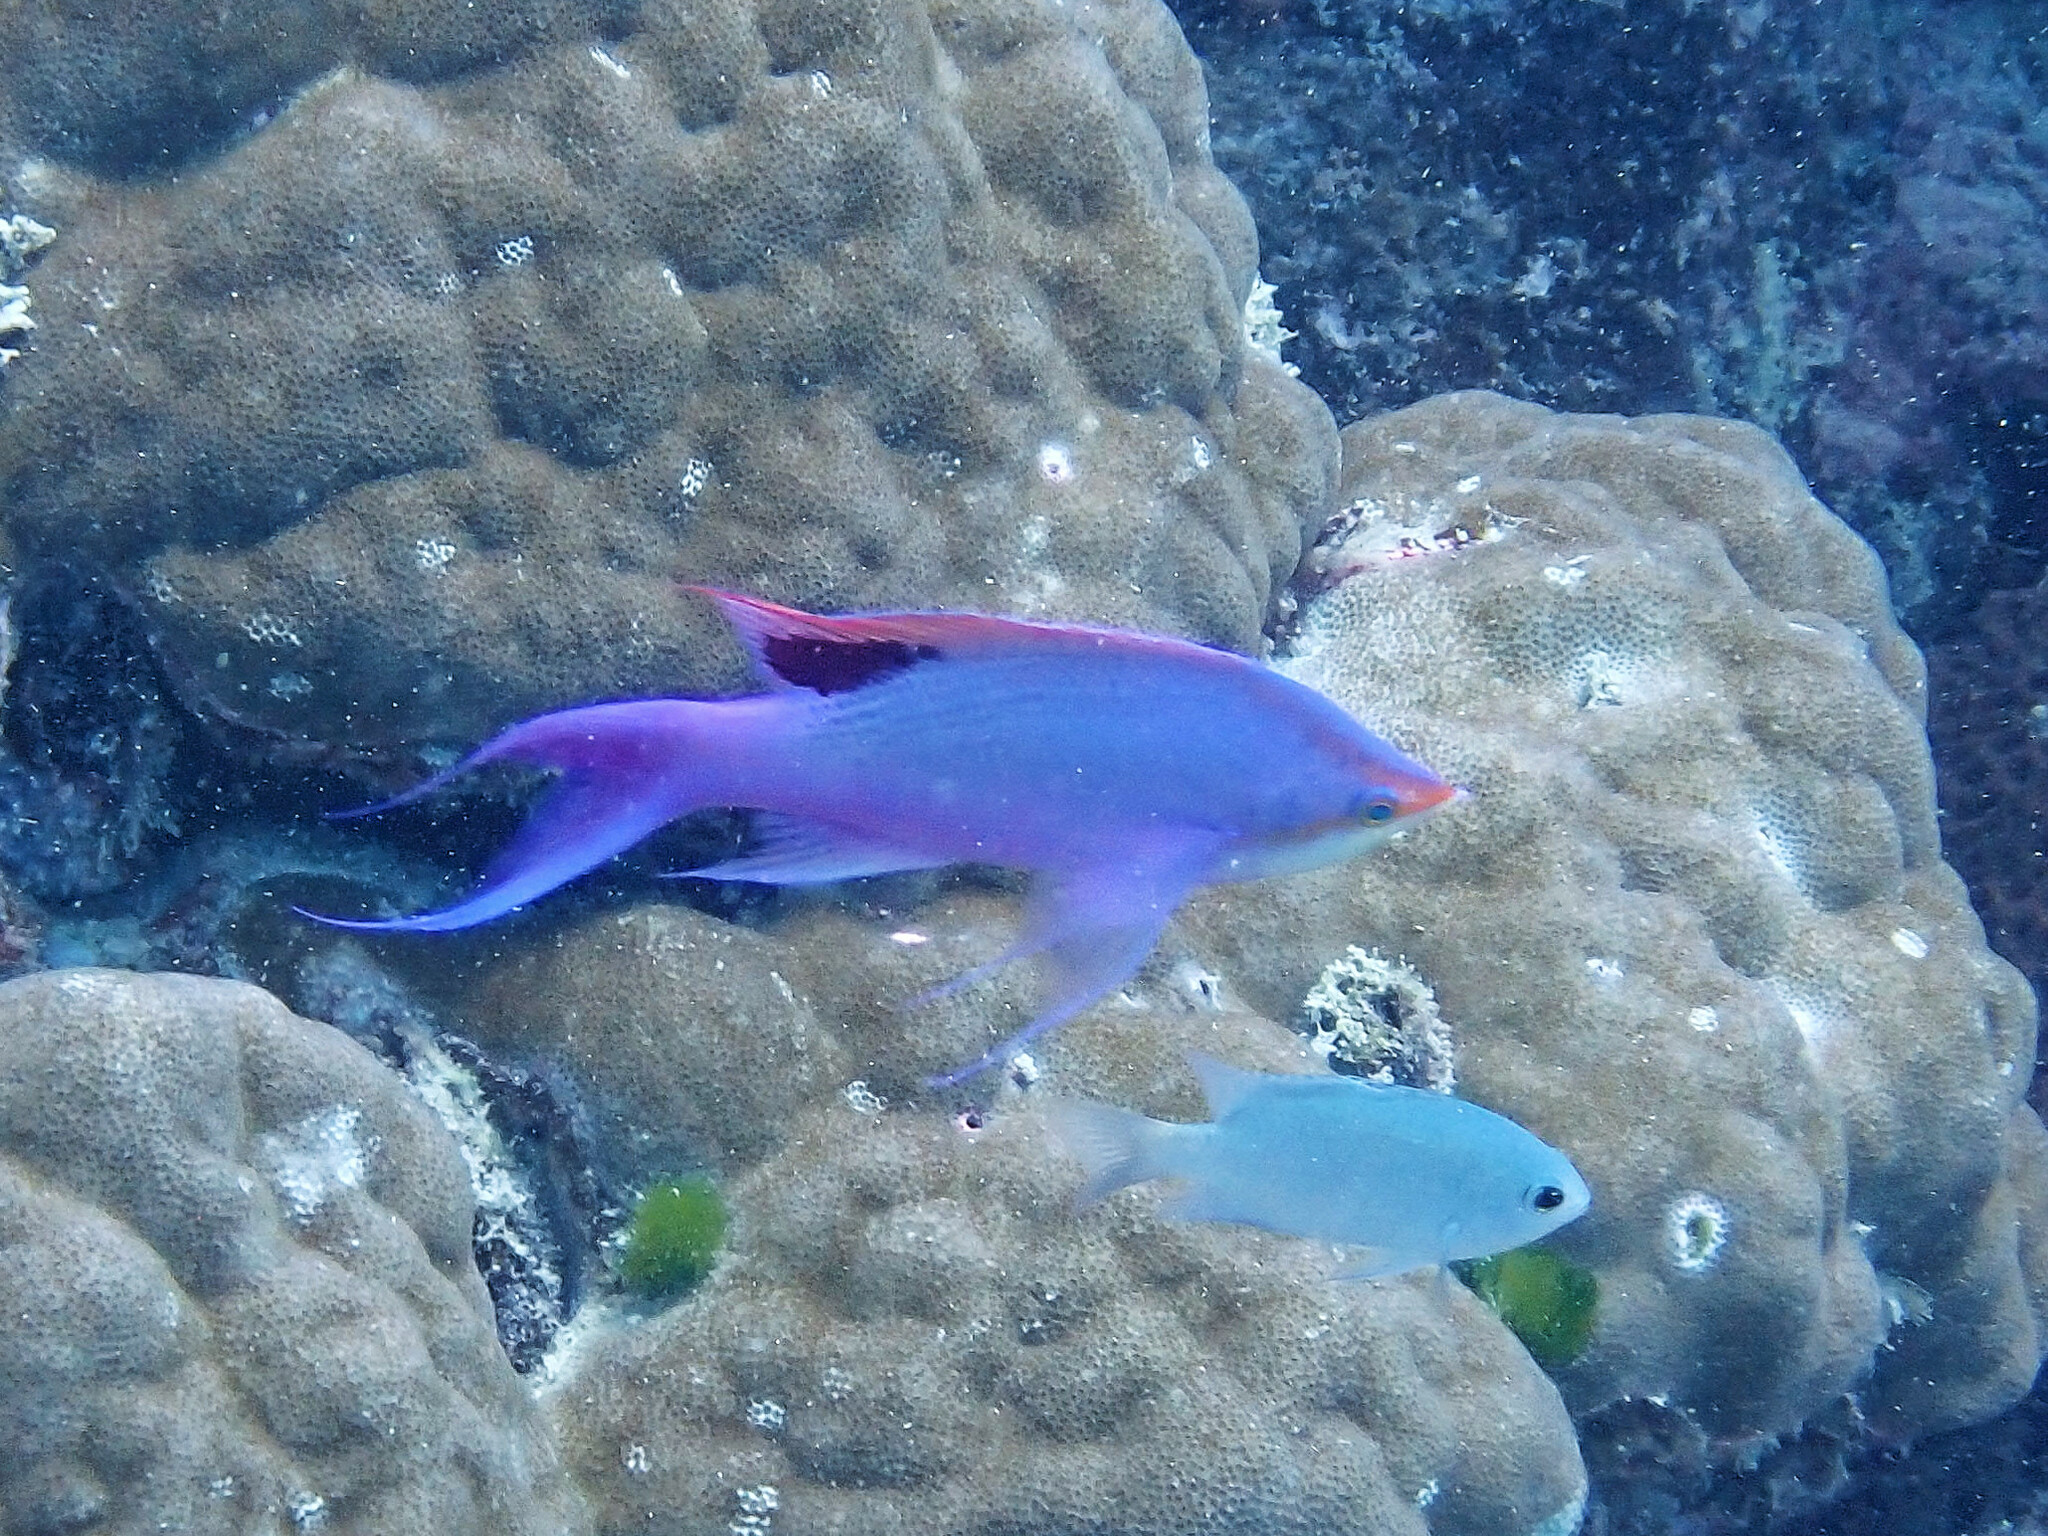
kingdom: Animalia
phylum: Chordata
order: Perciformes
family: Serranidae
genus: Pseudanthias
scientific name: Pseudanthias tuka
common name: Purple queen
